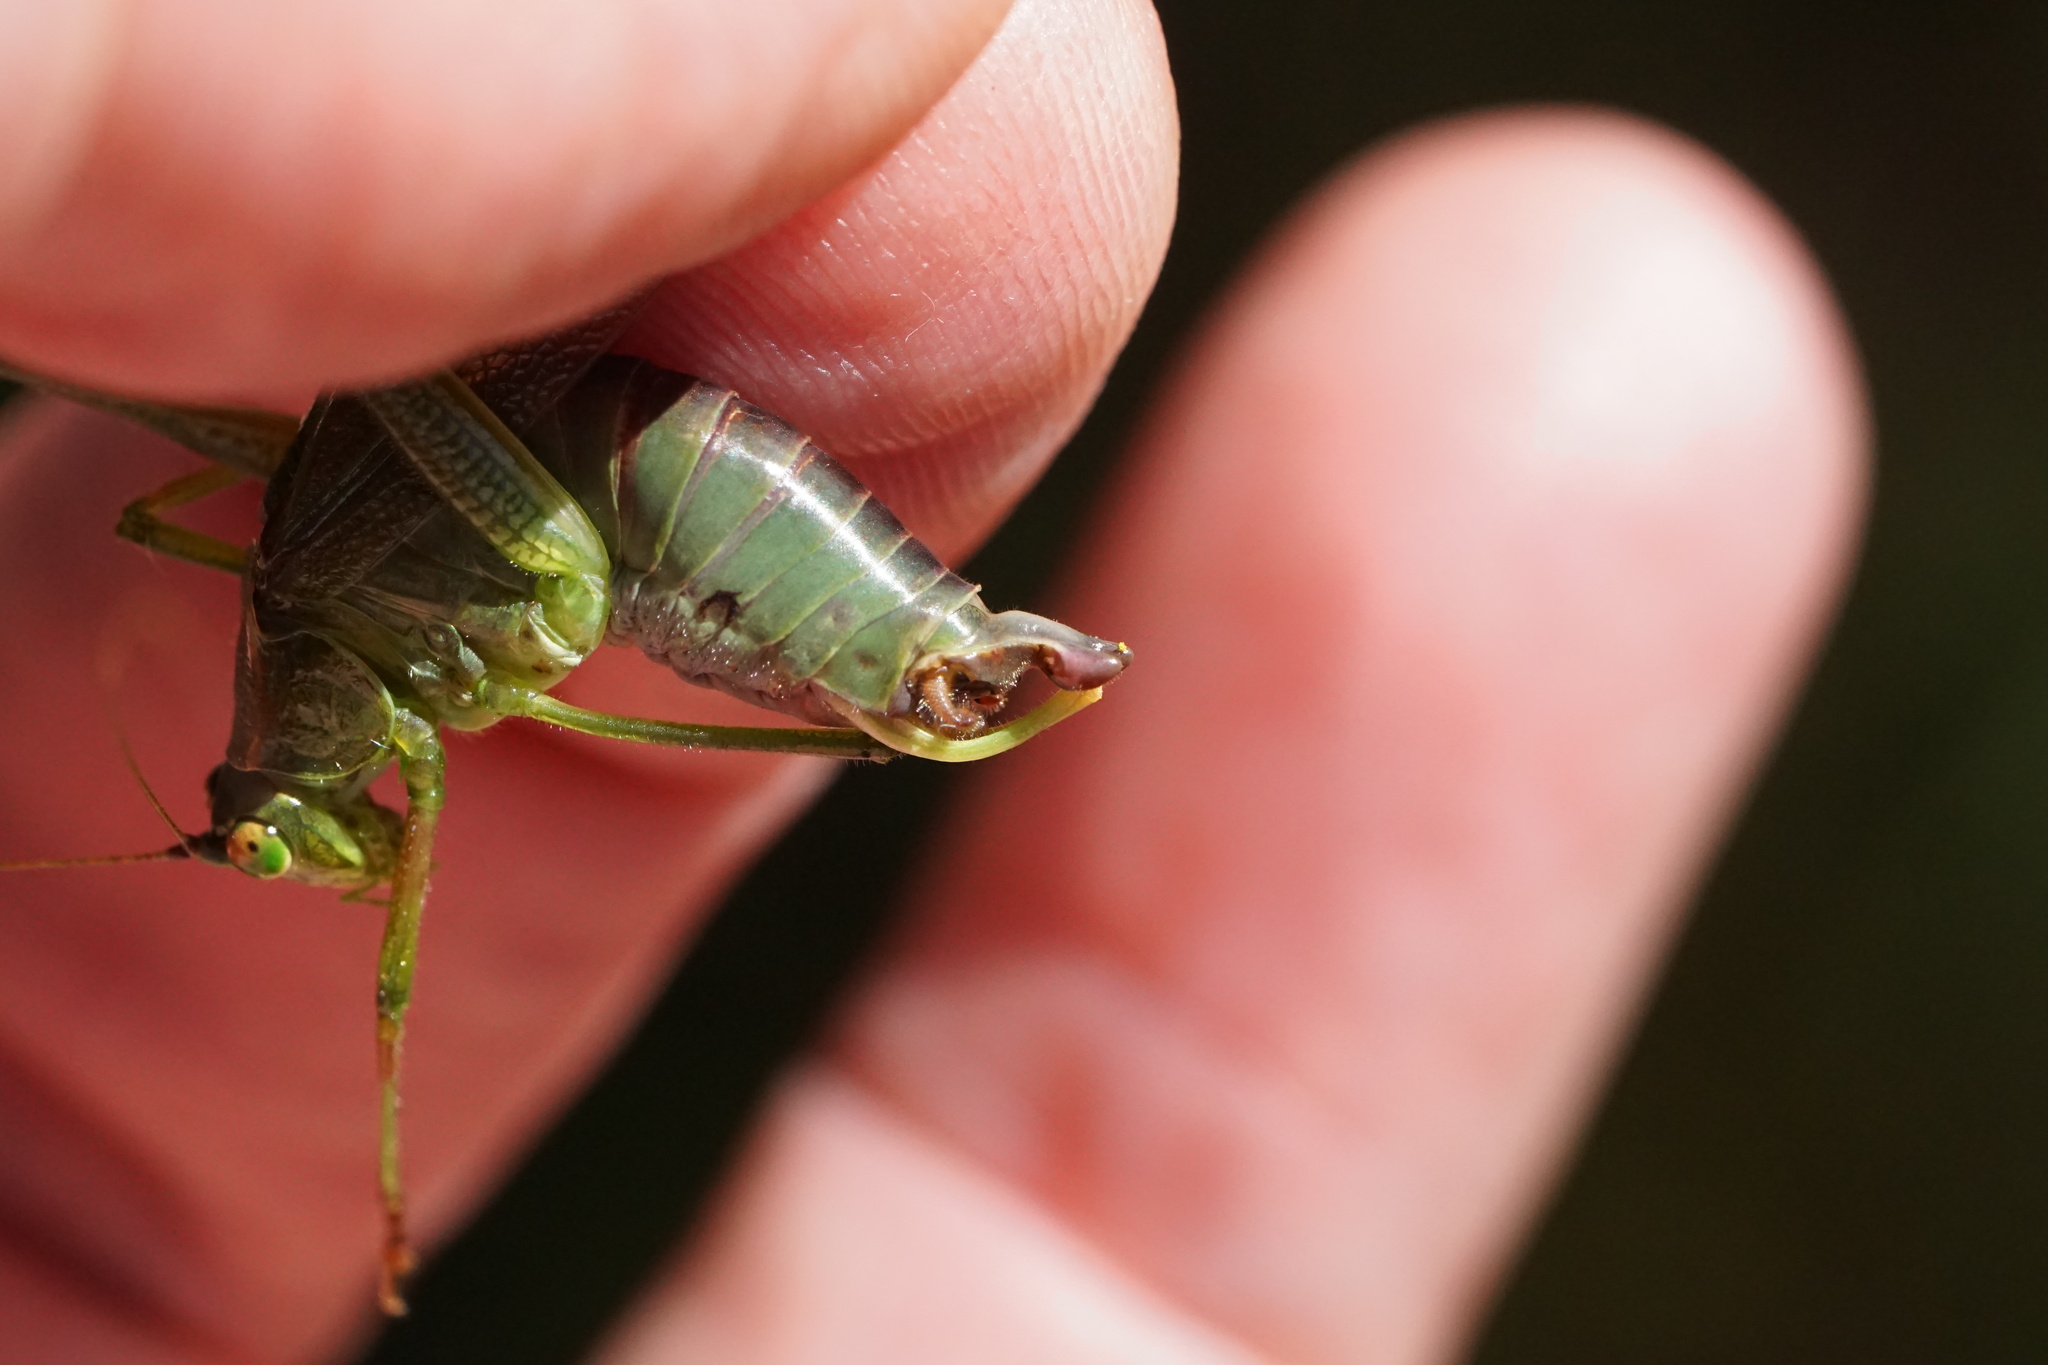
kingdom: Animalia
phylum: Arthropoda
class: Insecta
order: Orthoptera
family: Tettigoniidae
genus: Scudderia
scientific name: Scudderia furcata
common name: Fork-tailed bush katydid
